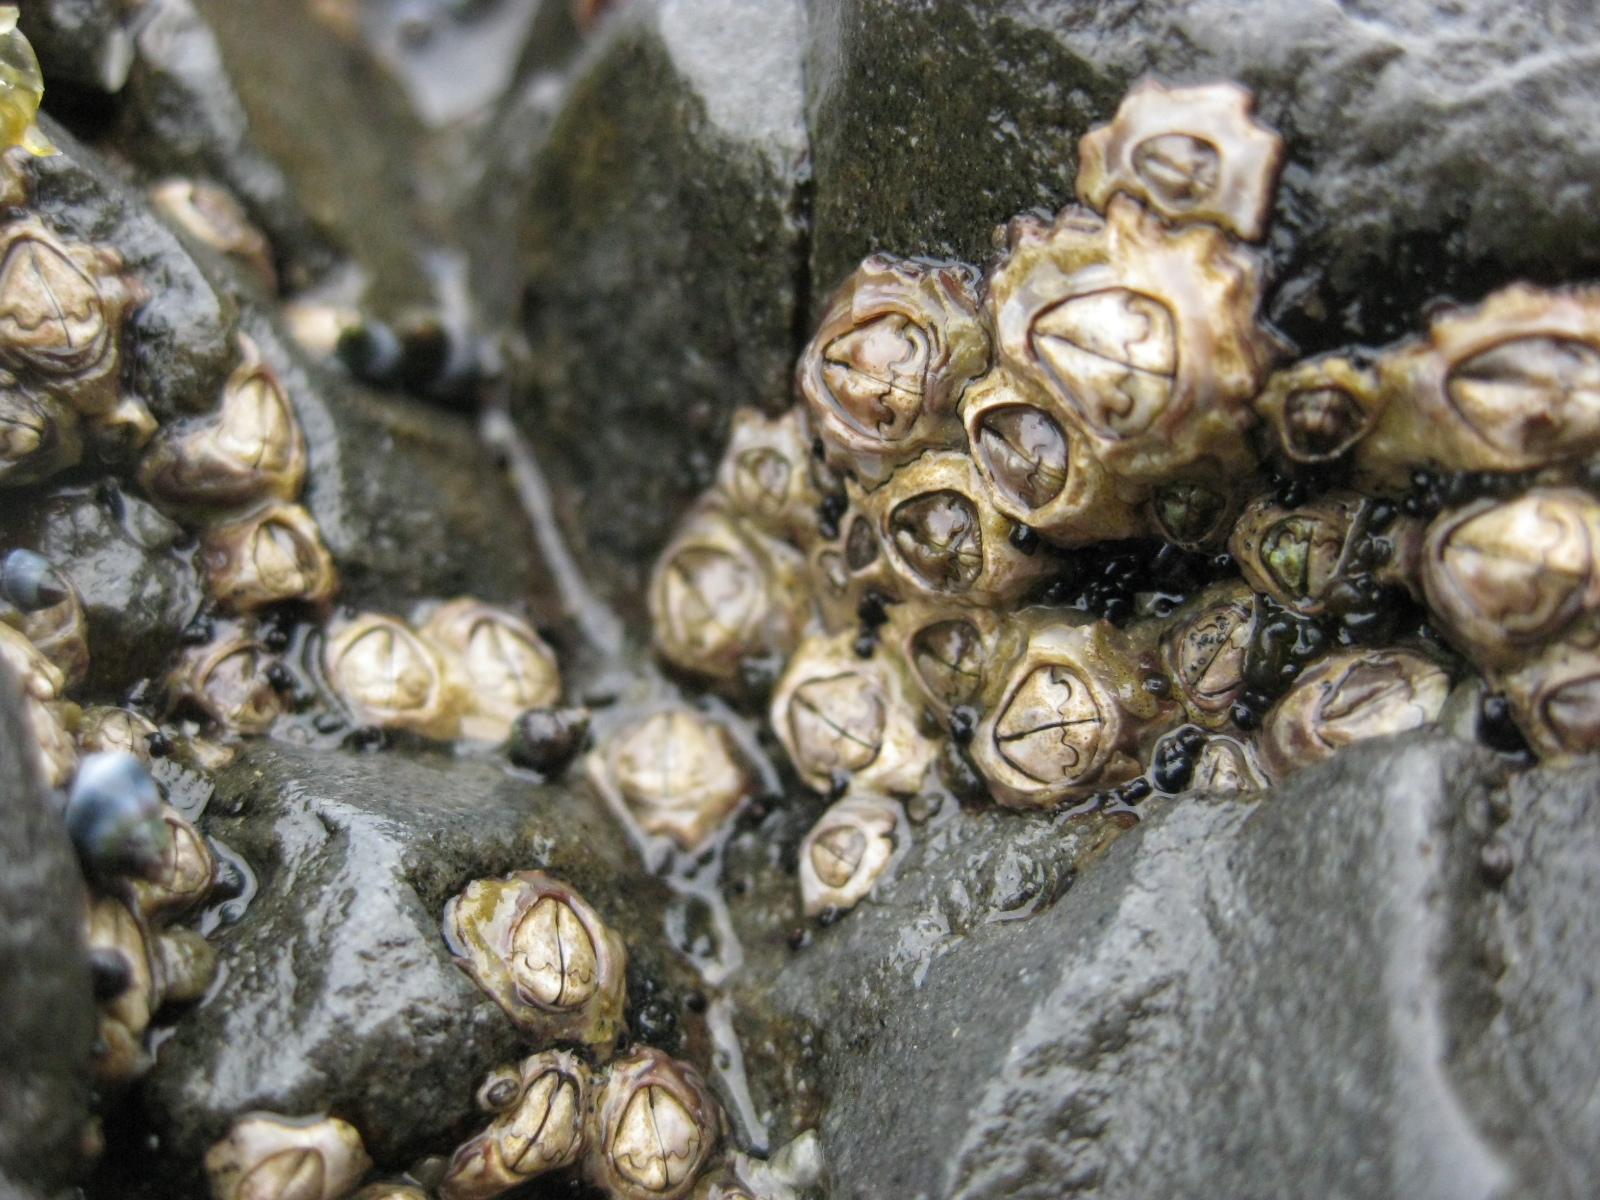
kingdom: Animalia
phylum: Arthropoda
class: Maxillopoda
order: Sessilia
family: Chthamalidae
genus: Chamaesipho
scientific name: Chamaesipho brunnea
